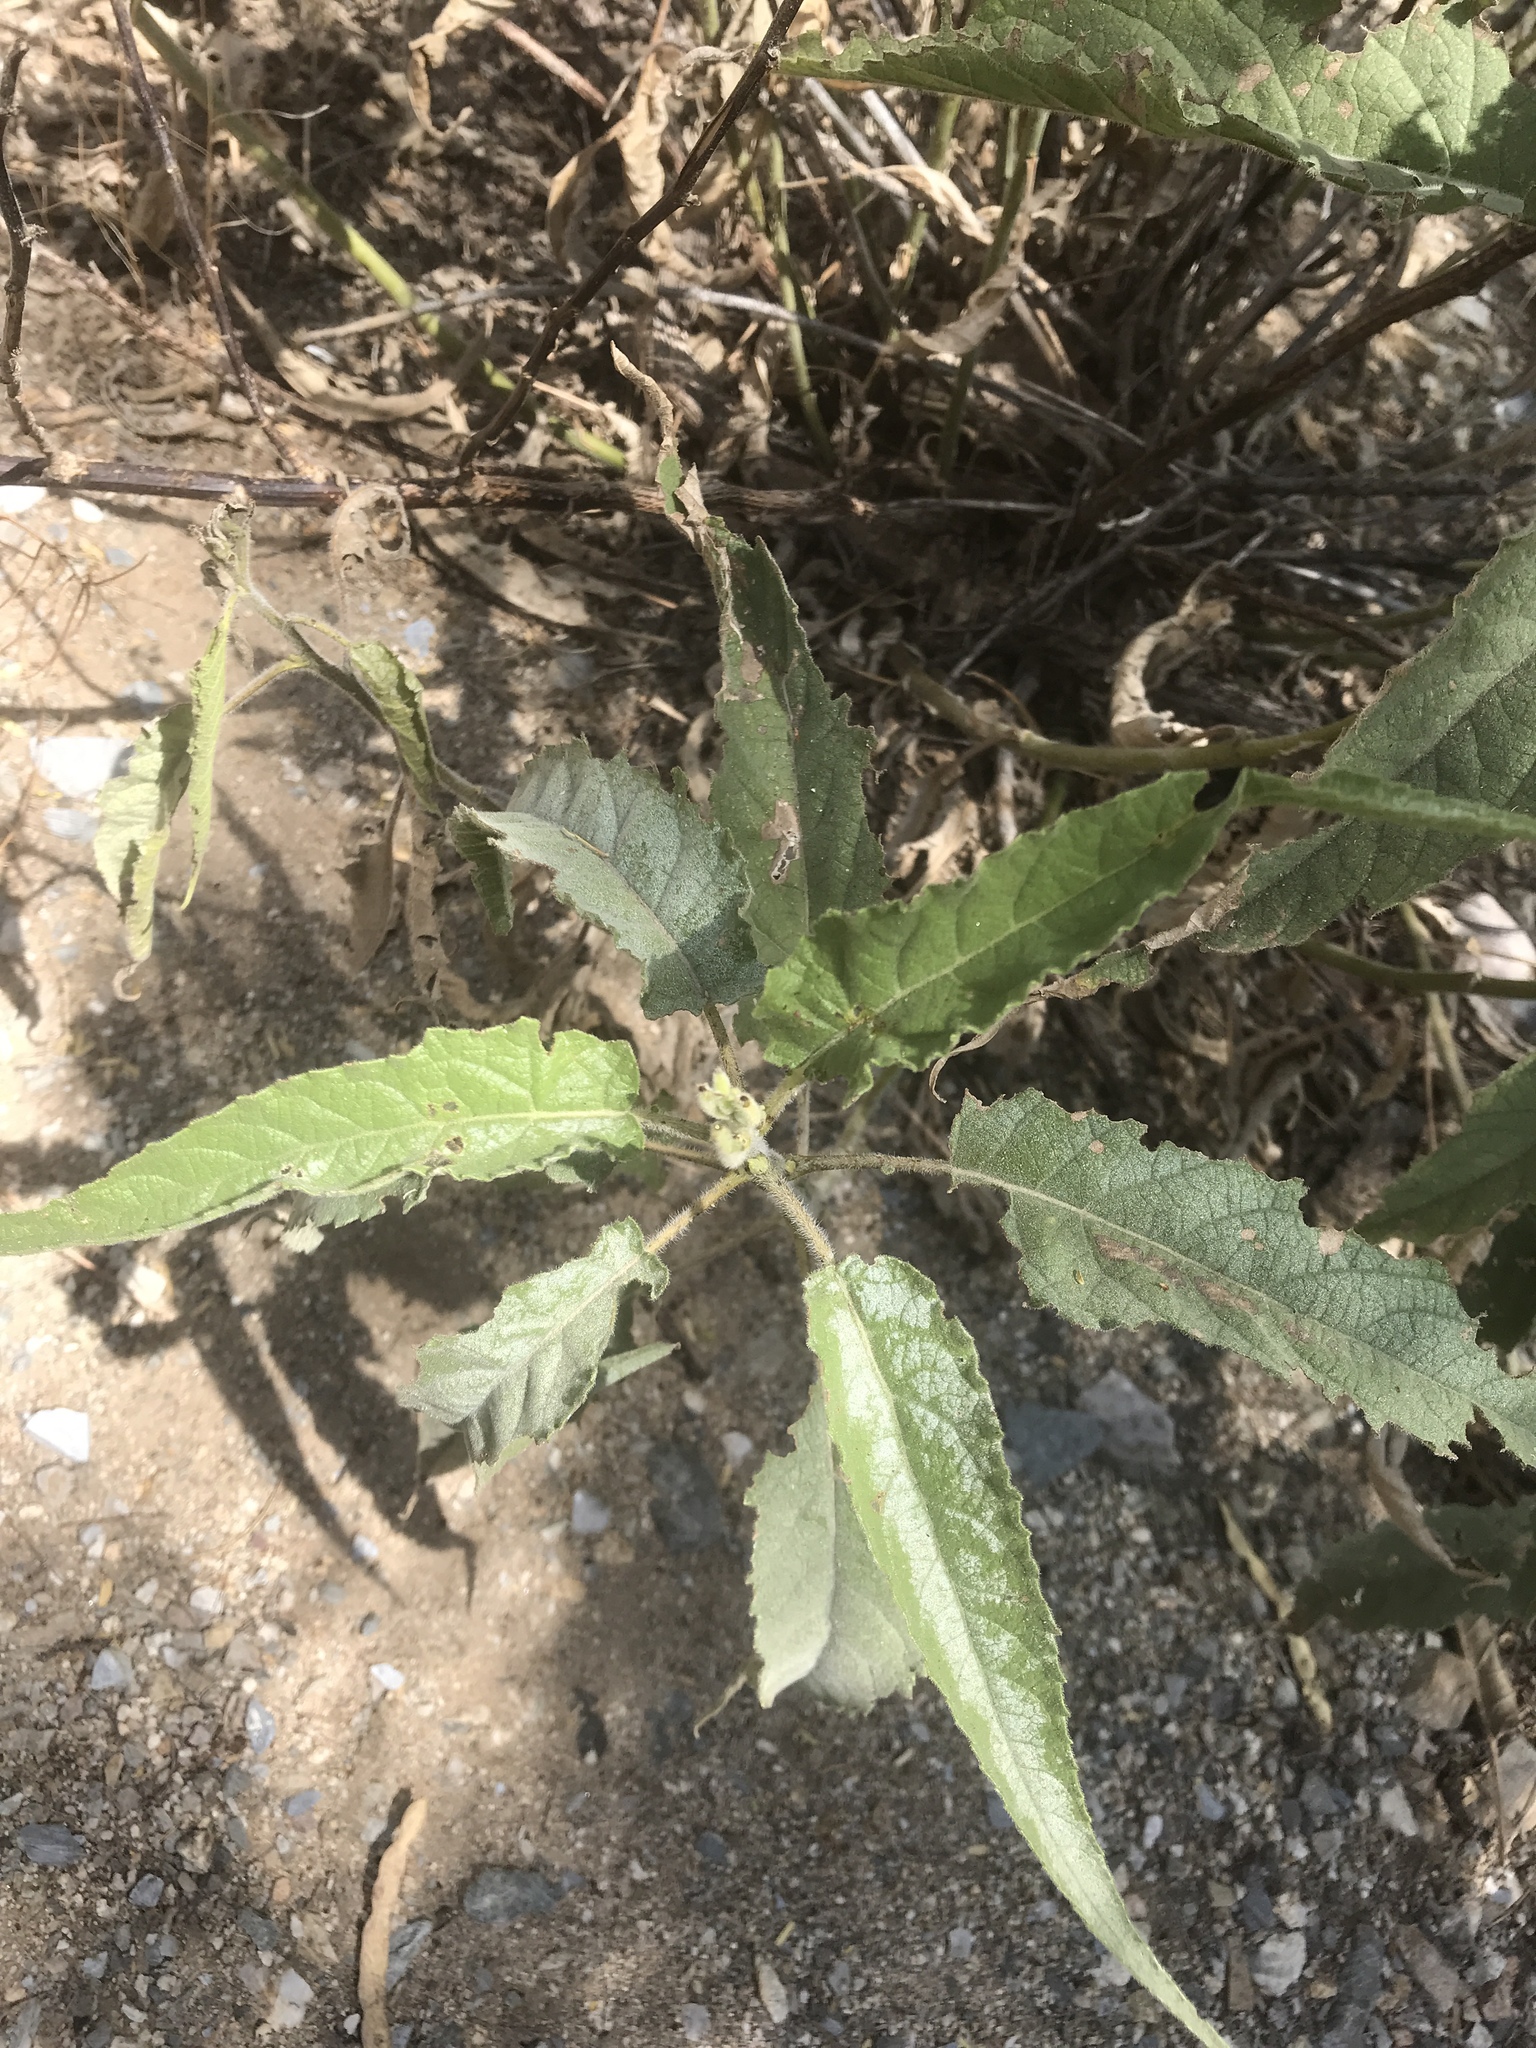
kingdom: Plantae
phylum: Tracheophyta
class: Magnoliopsida
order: Asterales
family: Asteraceae
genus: Ambrosia
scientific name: Ambrosia ambrosioides
